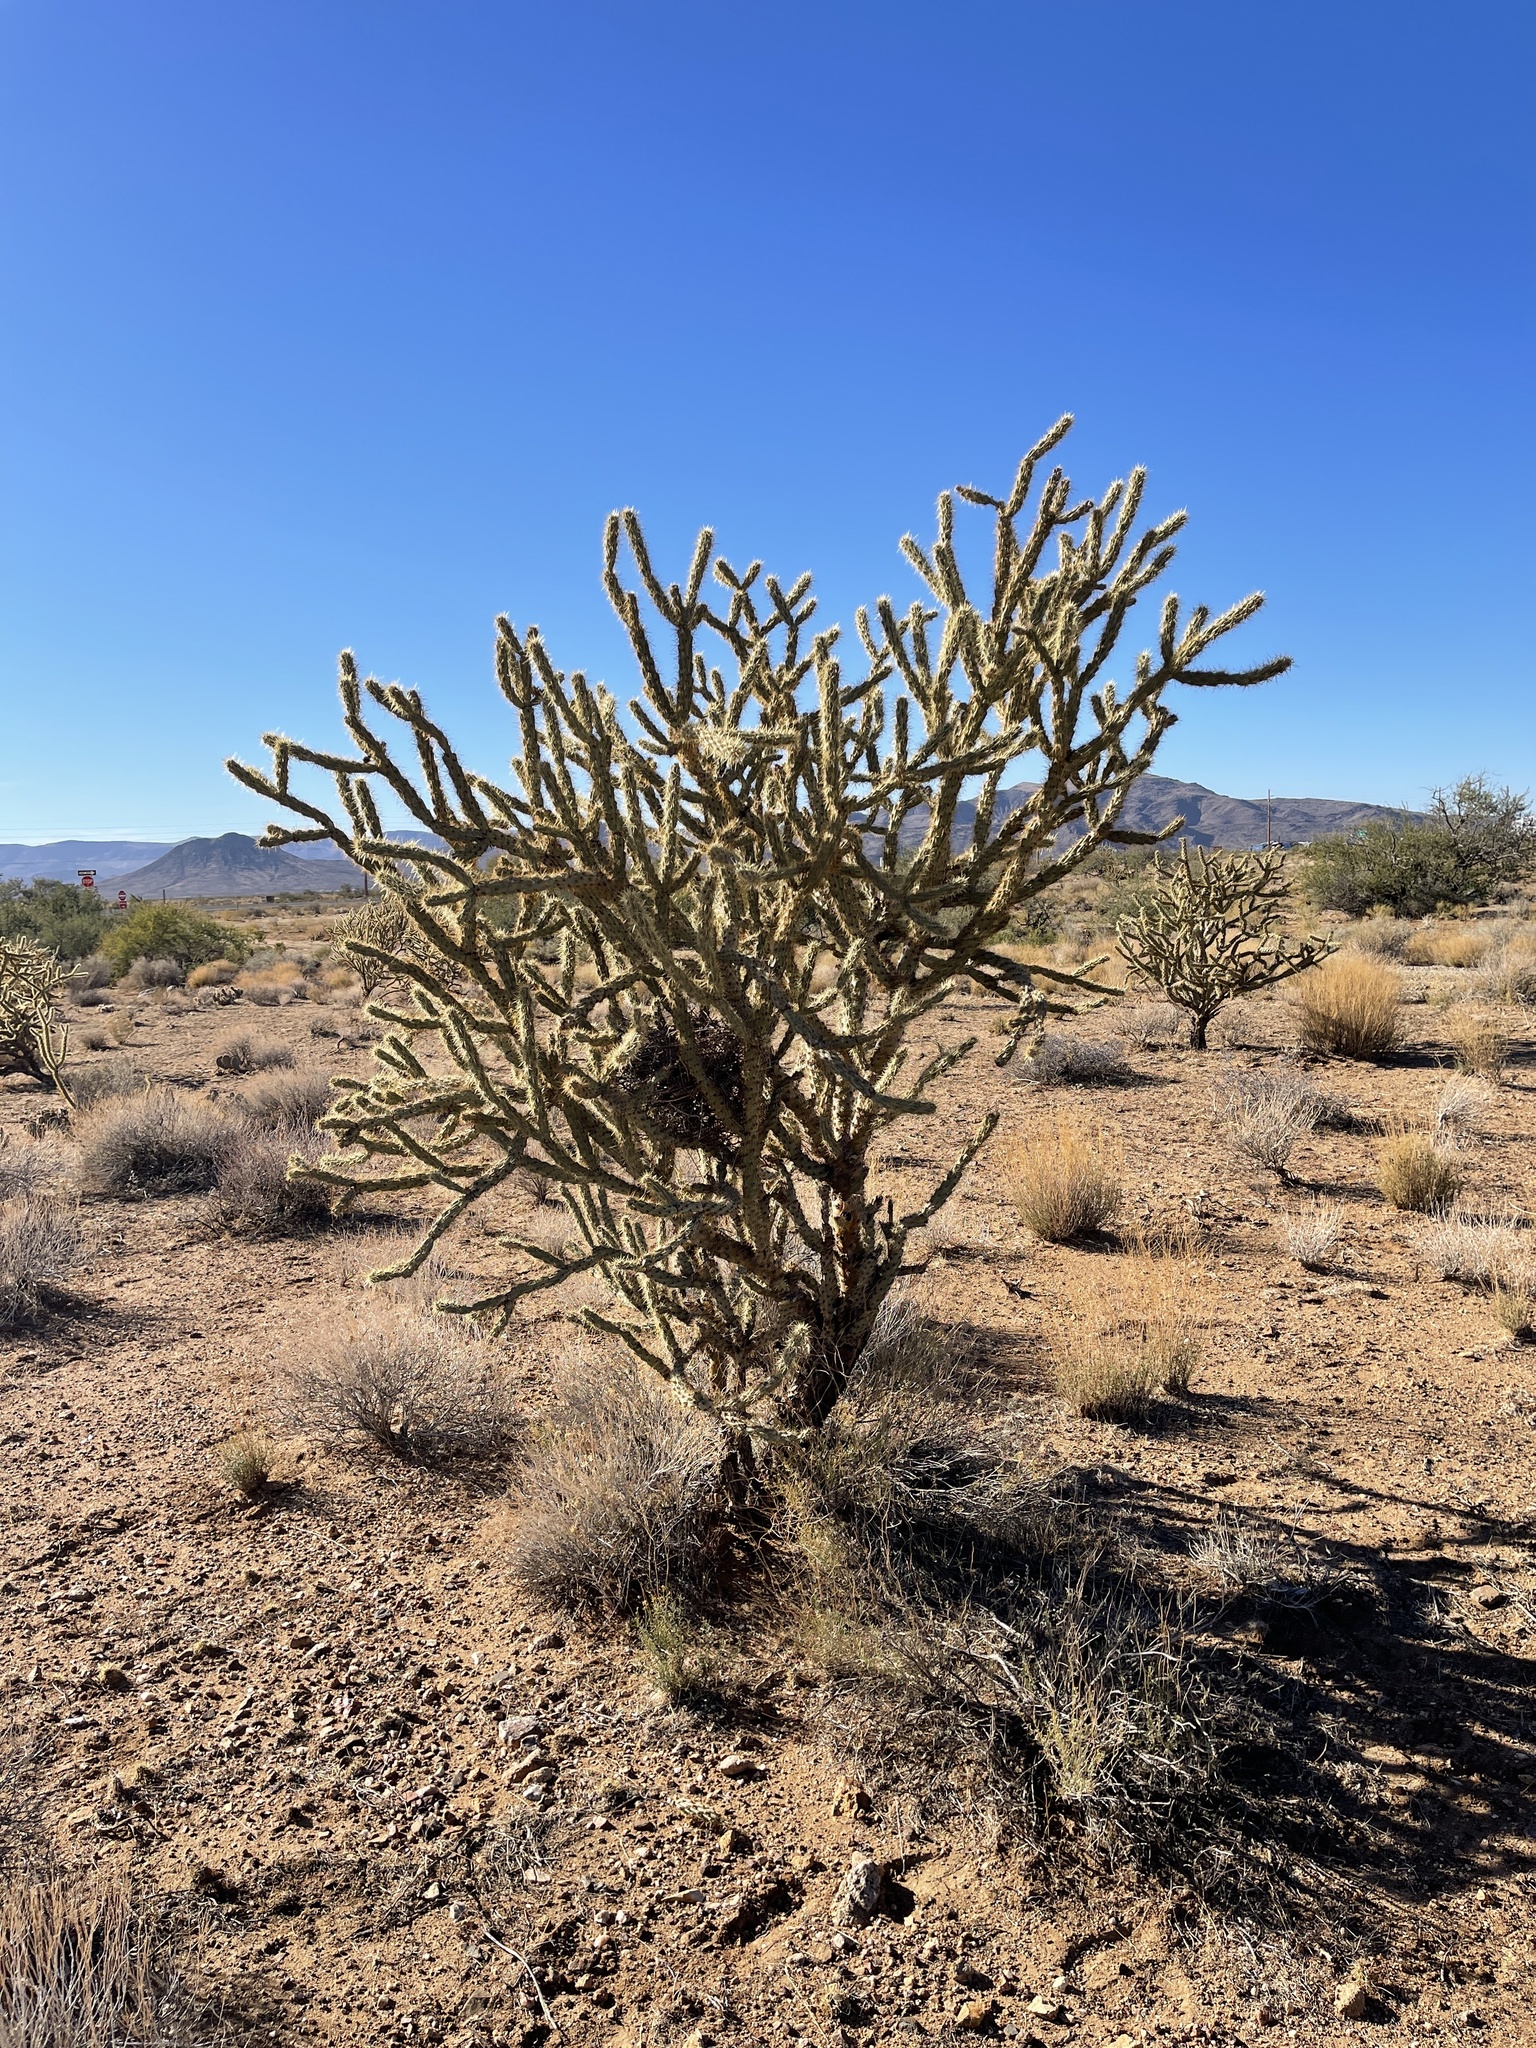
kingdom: Plantae
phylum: Tracheophyta
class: Magnoliopsida
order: Caryophyllales
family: Cactaceae
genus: Cylindropuntia
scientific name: Cylindropuntia acanthocarpa
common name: Buckhorn cholla
